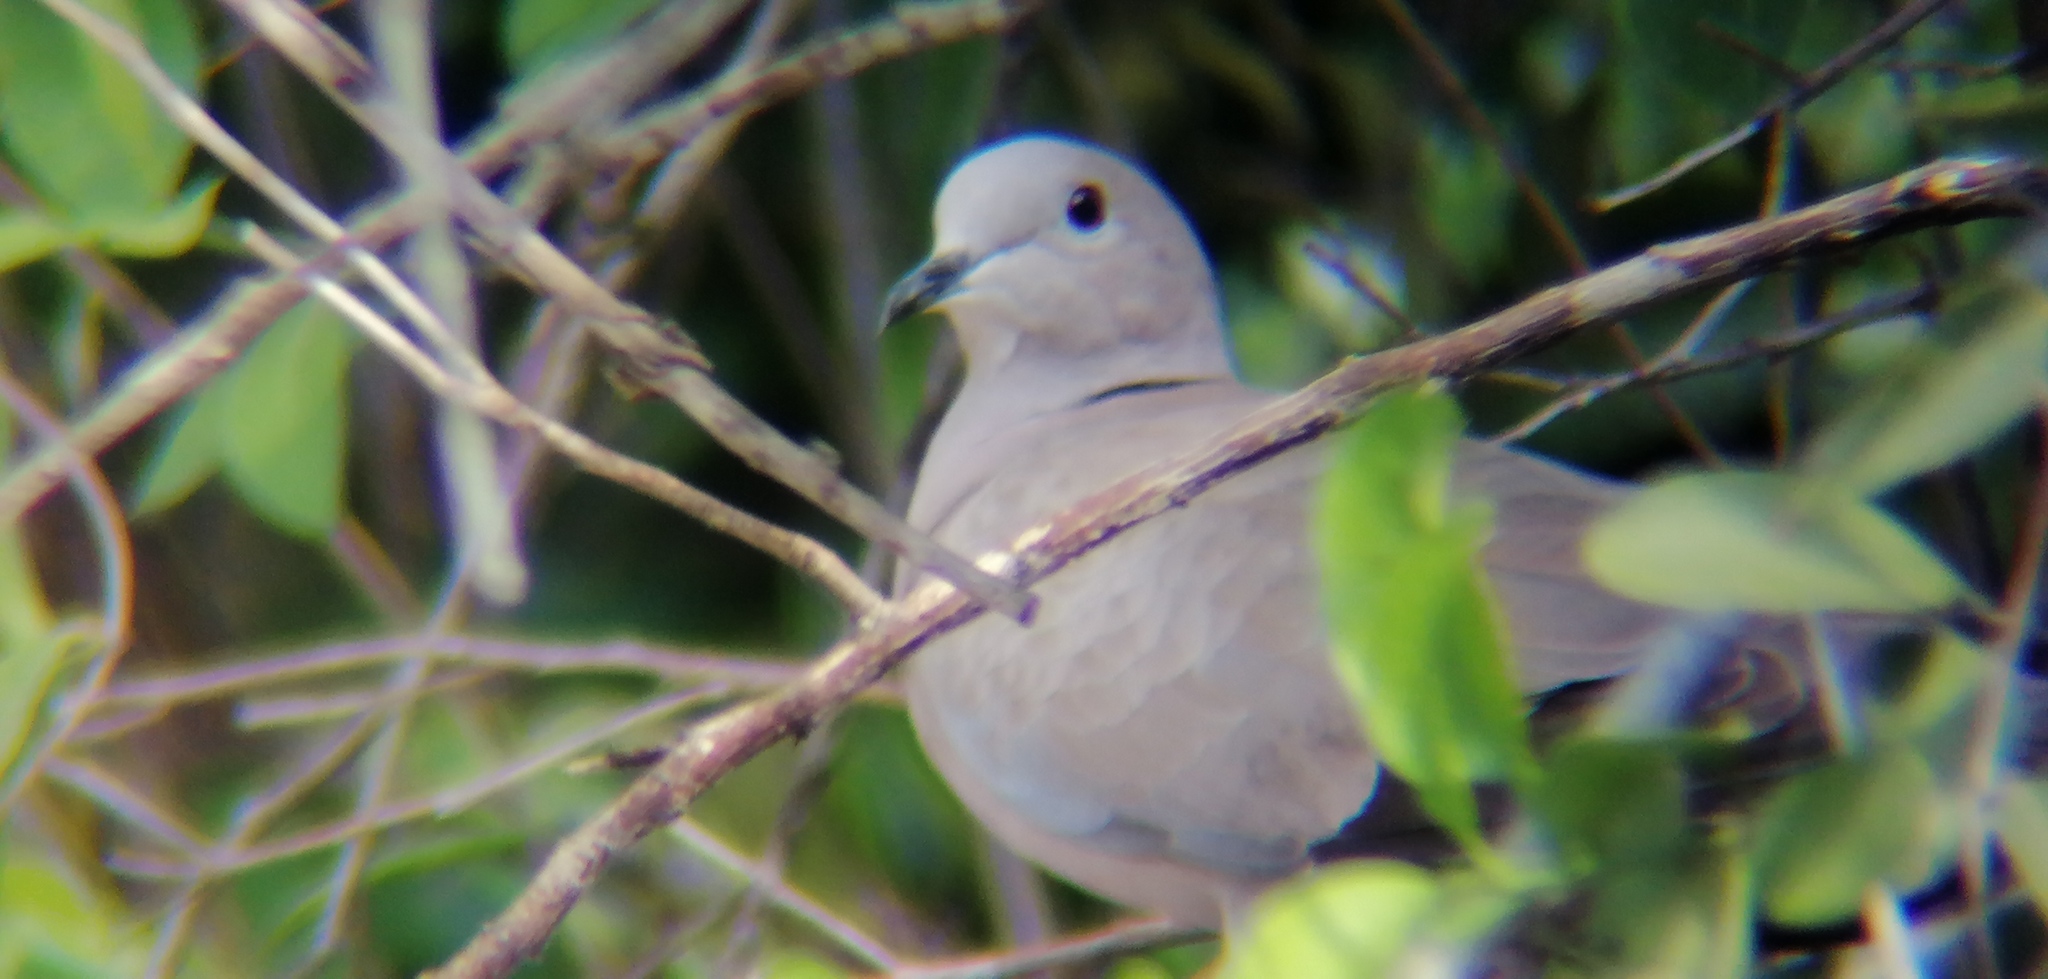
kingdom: Animalia
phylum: Chordata
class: Aves
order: Columbiformes
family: Columbidae
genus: Streptopelia
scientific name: Streptopelia decaocto
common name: Eurasian collared dove
